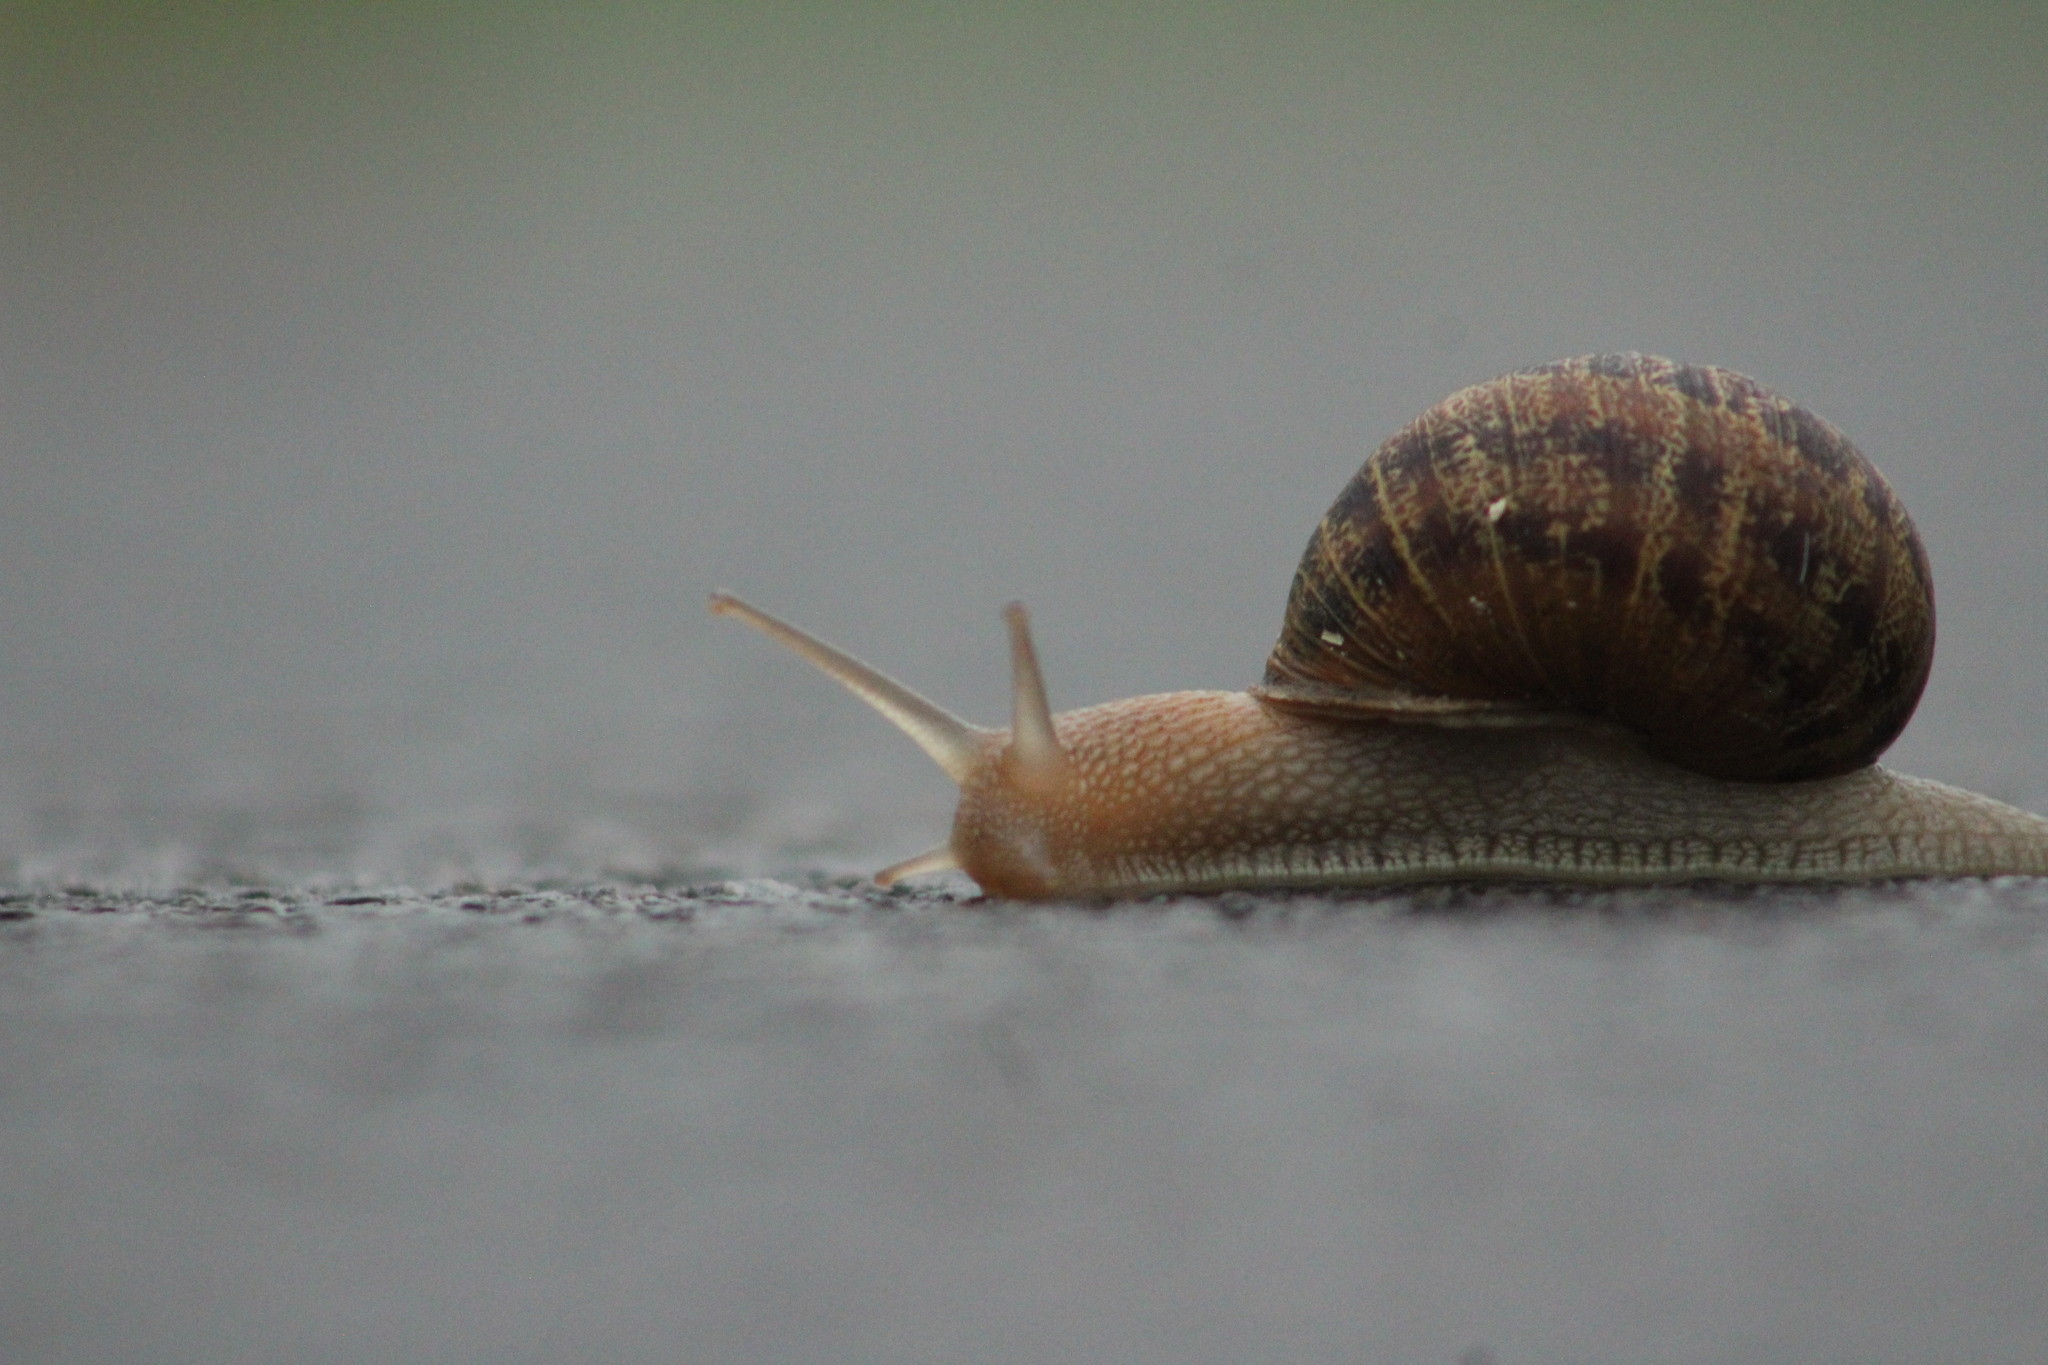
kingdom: Animalia
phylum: Mollusca
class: Gastropoda
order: Stylommatophora
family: Helicidae
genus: Cornu
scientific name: Cornu aspersum
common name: Brown garden snail
